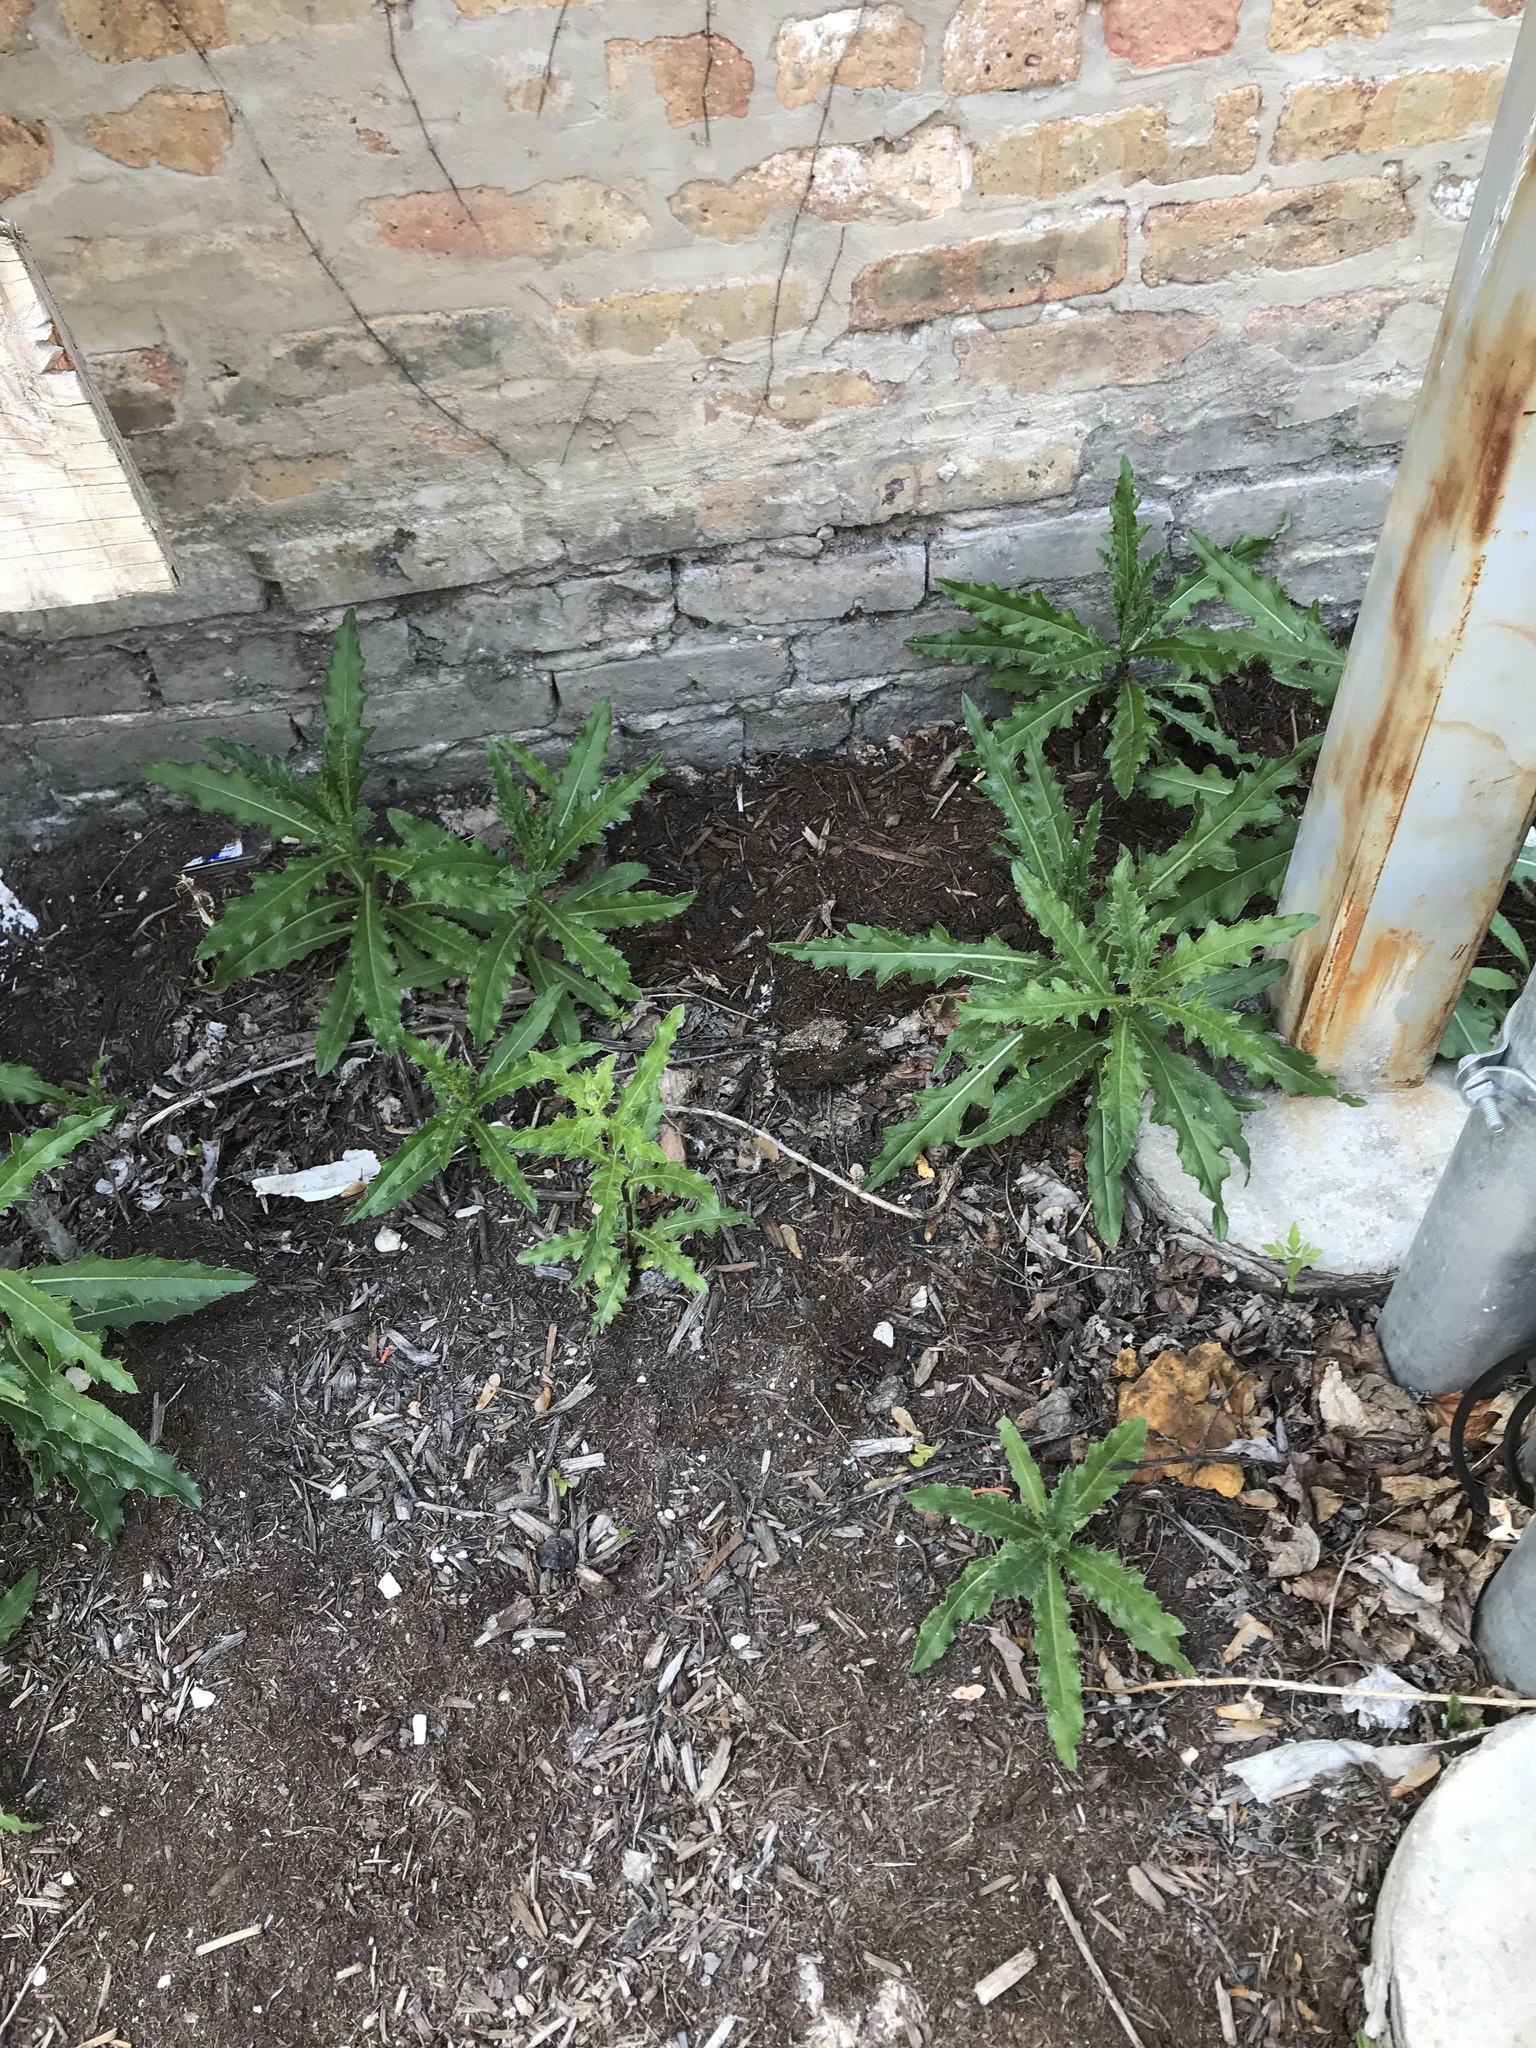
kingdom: Plantae
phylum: Tracheophyta
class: Magnoliopsida
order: Asterales
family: Asteraceae
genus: Cirsium
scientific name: Cirsium arvense
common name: Creeping thistle
